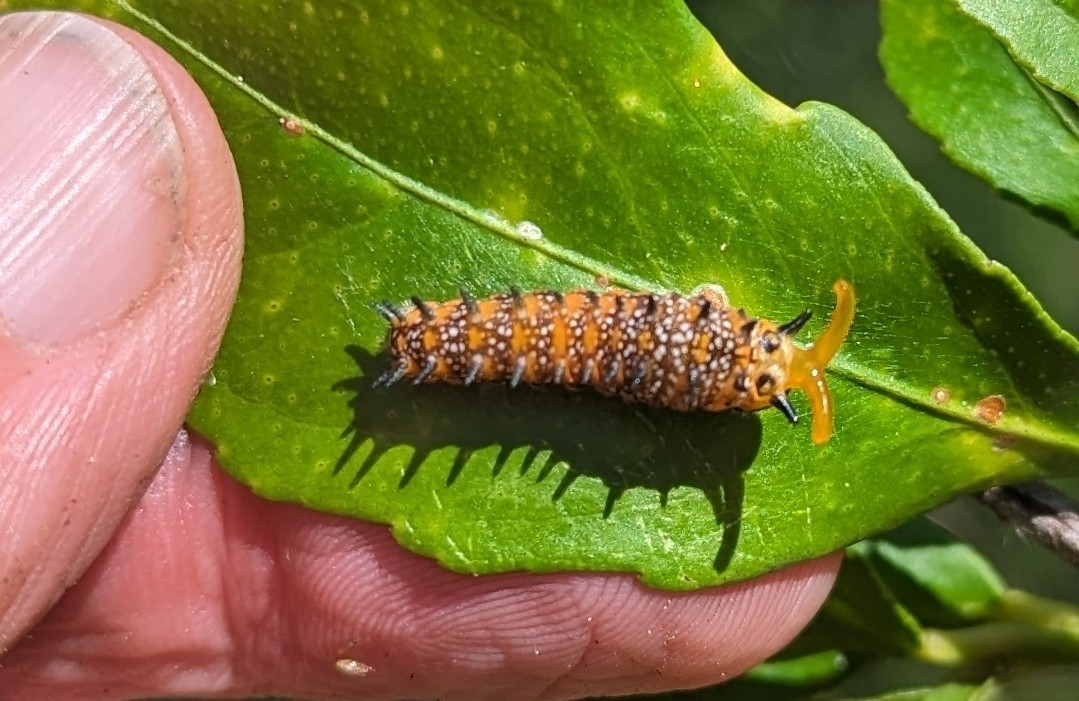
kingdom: Animalia
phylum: Arthropoda
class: Insecta
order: Lepidoptera
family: Papilionidae
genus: Papilio
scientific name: Papilio anactus
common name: Dingy swallowtail
